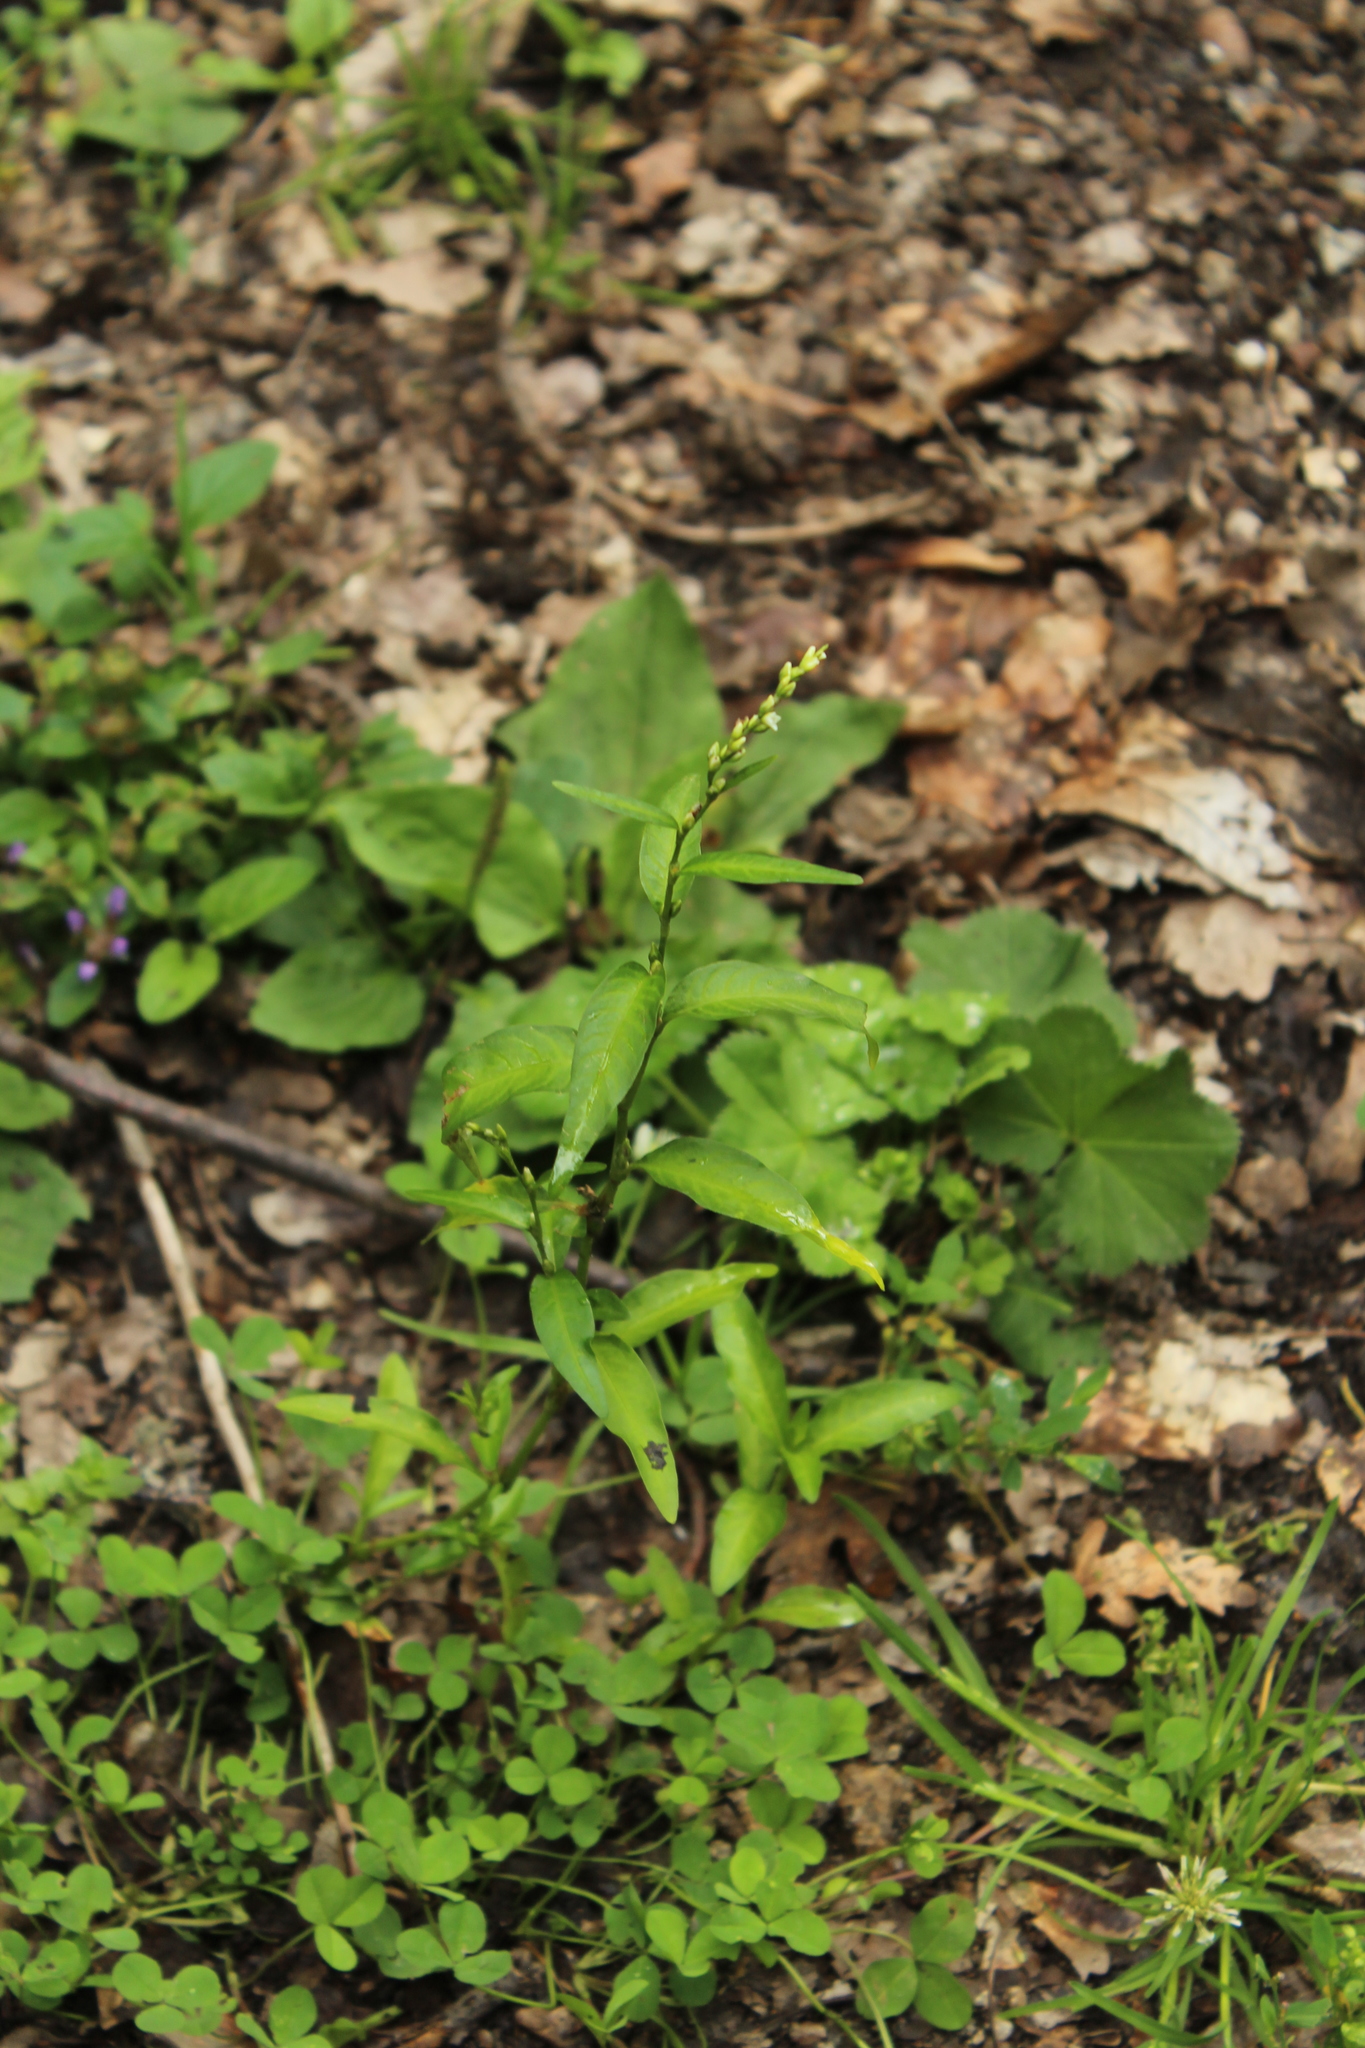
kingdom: Plantae
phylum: Tracheophyta
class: Magnoliopsida
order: Caryophyllales
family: Polygonaceae
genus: Persicaria
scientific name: Persicaria hydropiper
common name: Water-pepper
